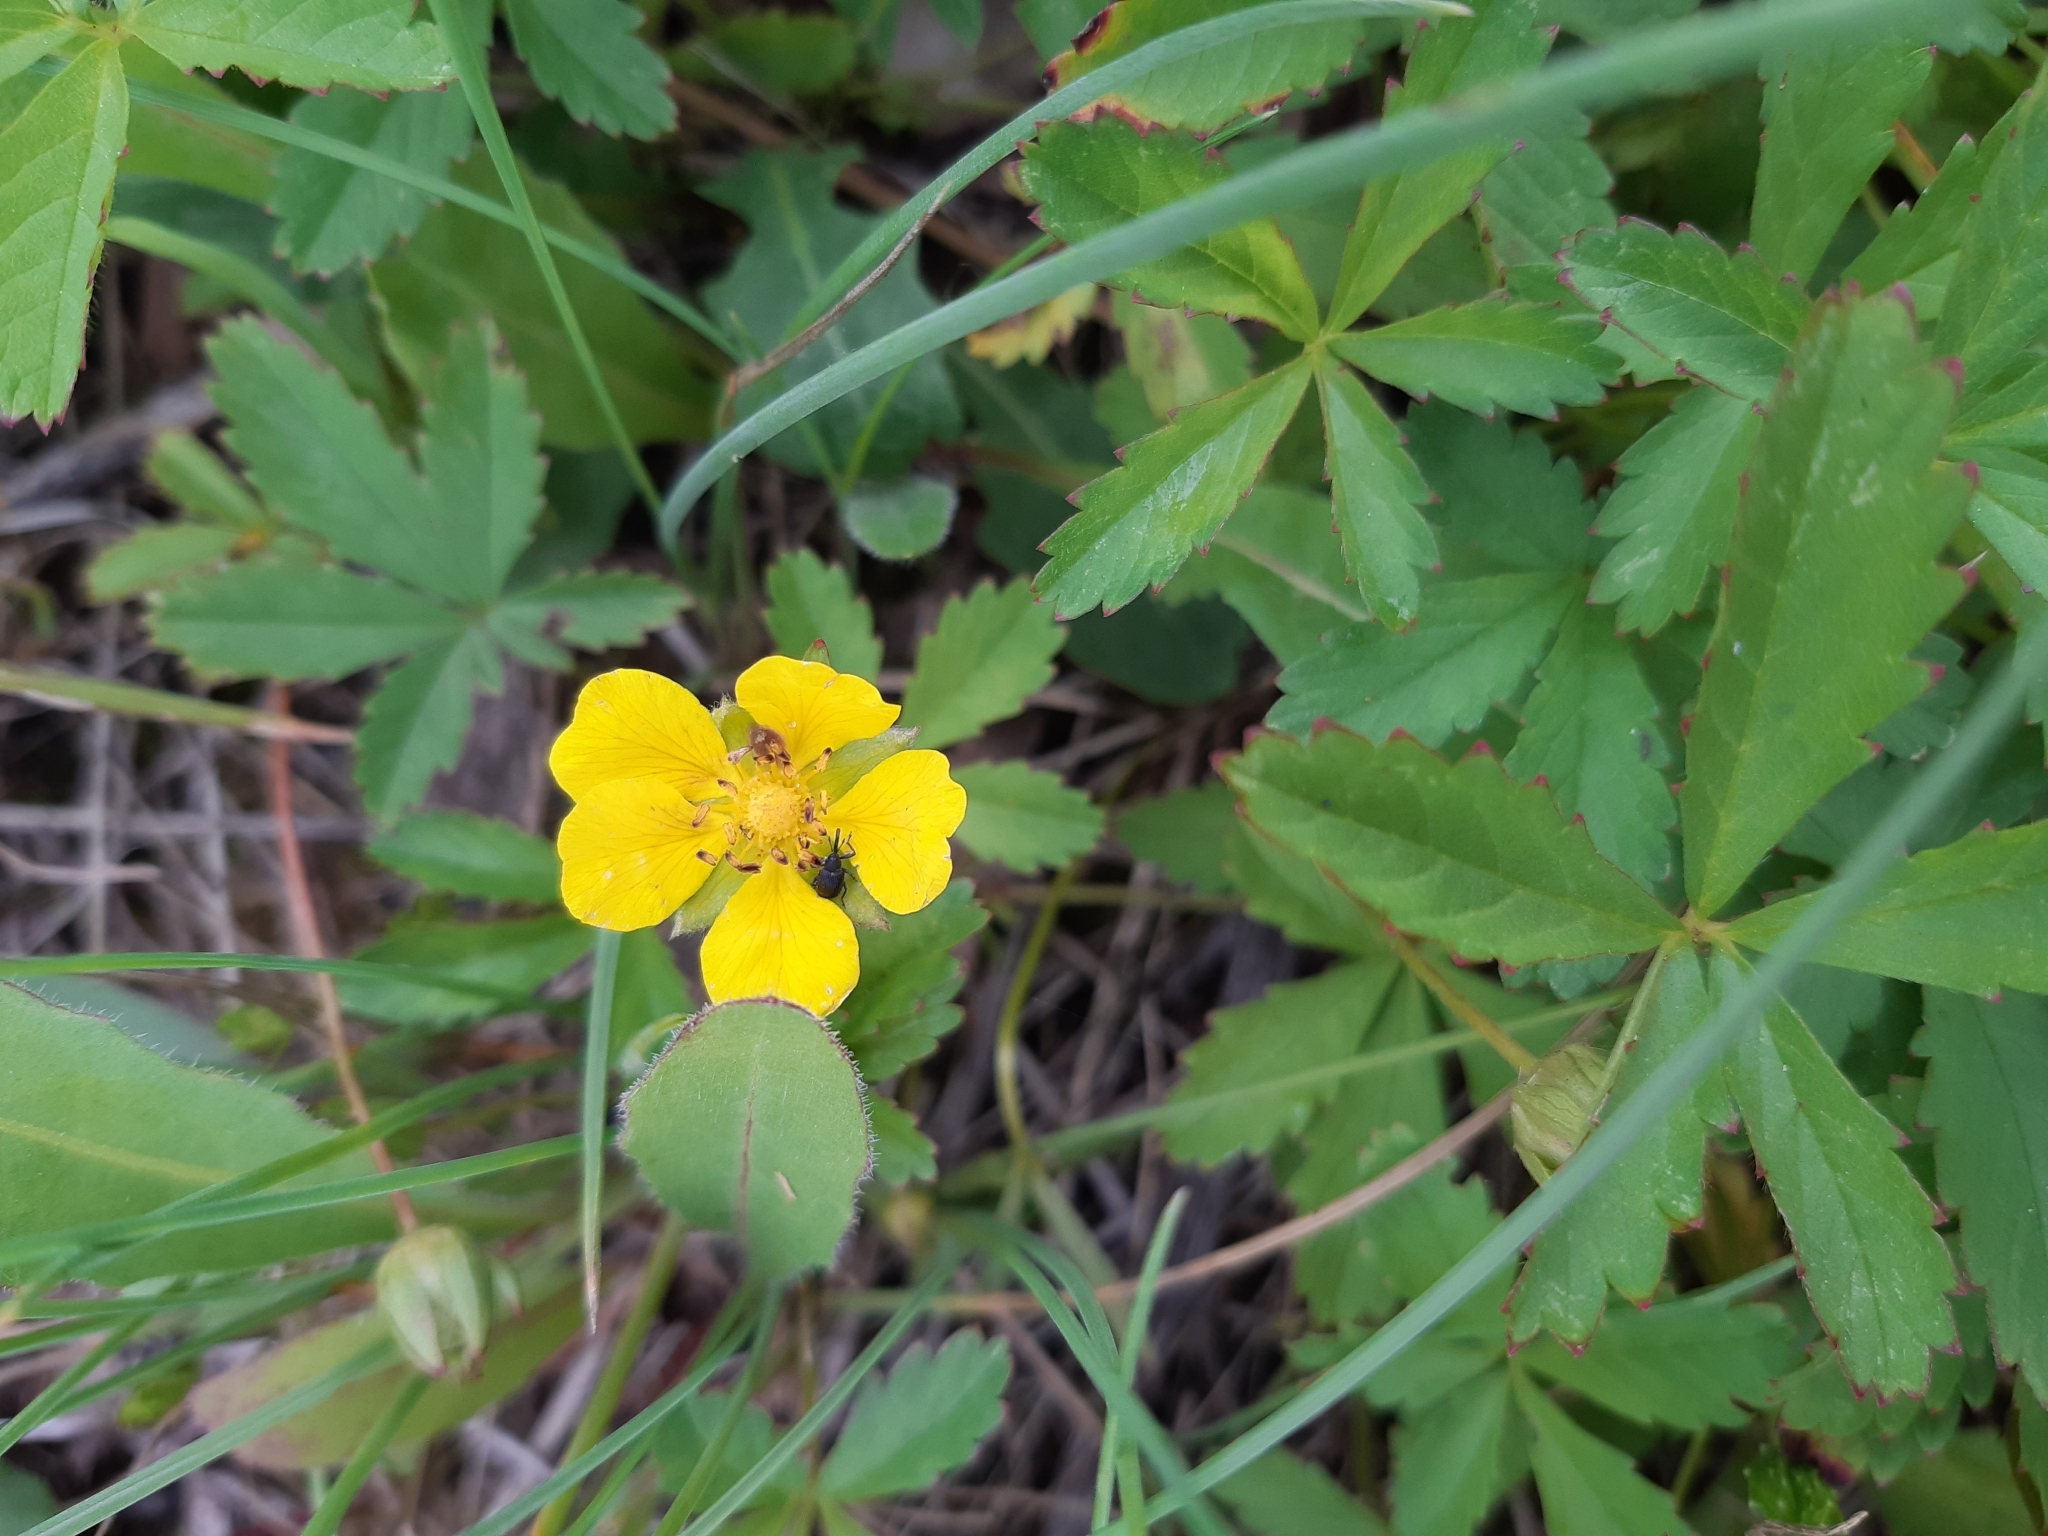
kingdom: Plantae
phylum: Tracheophyta
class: Magnoliopsida
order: Rosales
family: Rosaceae
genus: Potentilla
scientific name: Potentilla reptans
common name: Creeping cinquefoil
